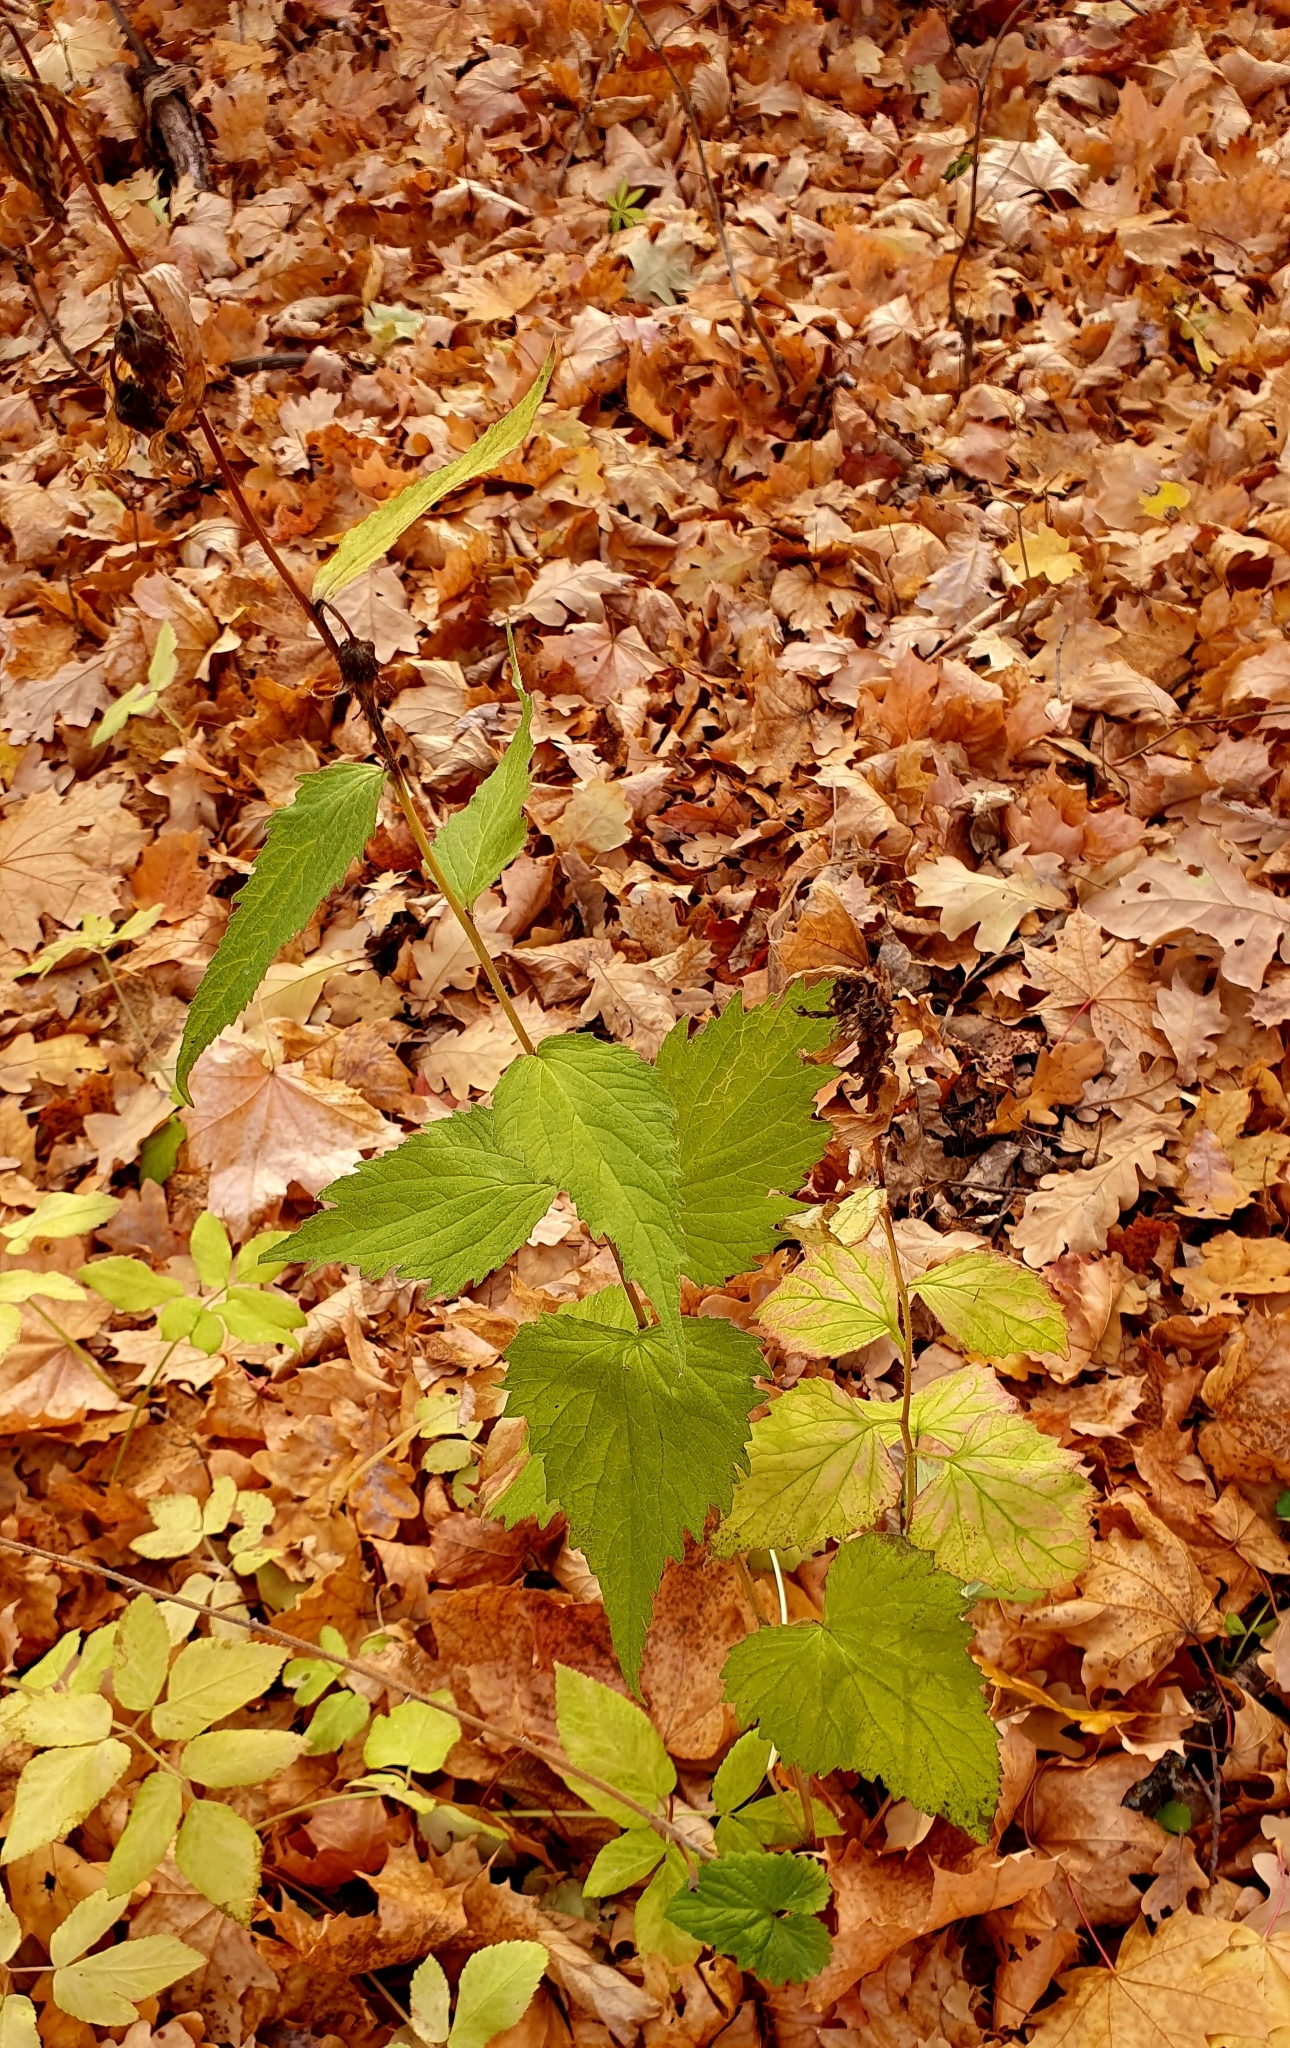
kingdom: Plantae
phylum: Tracheophyta
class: Magnoliopsida
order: Asterales
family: Campanulaceae
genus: Campanula
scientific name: Campanula trachelium
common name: Nettle-leaved bellflower
